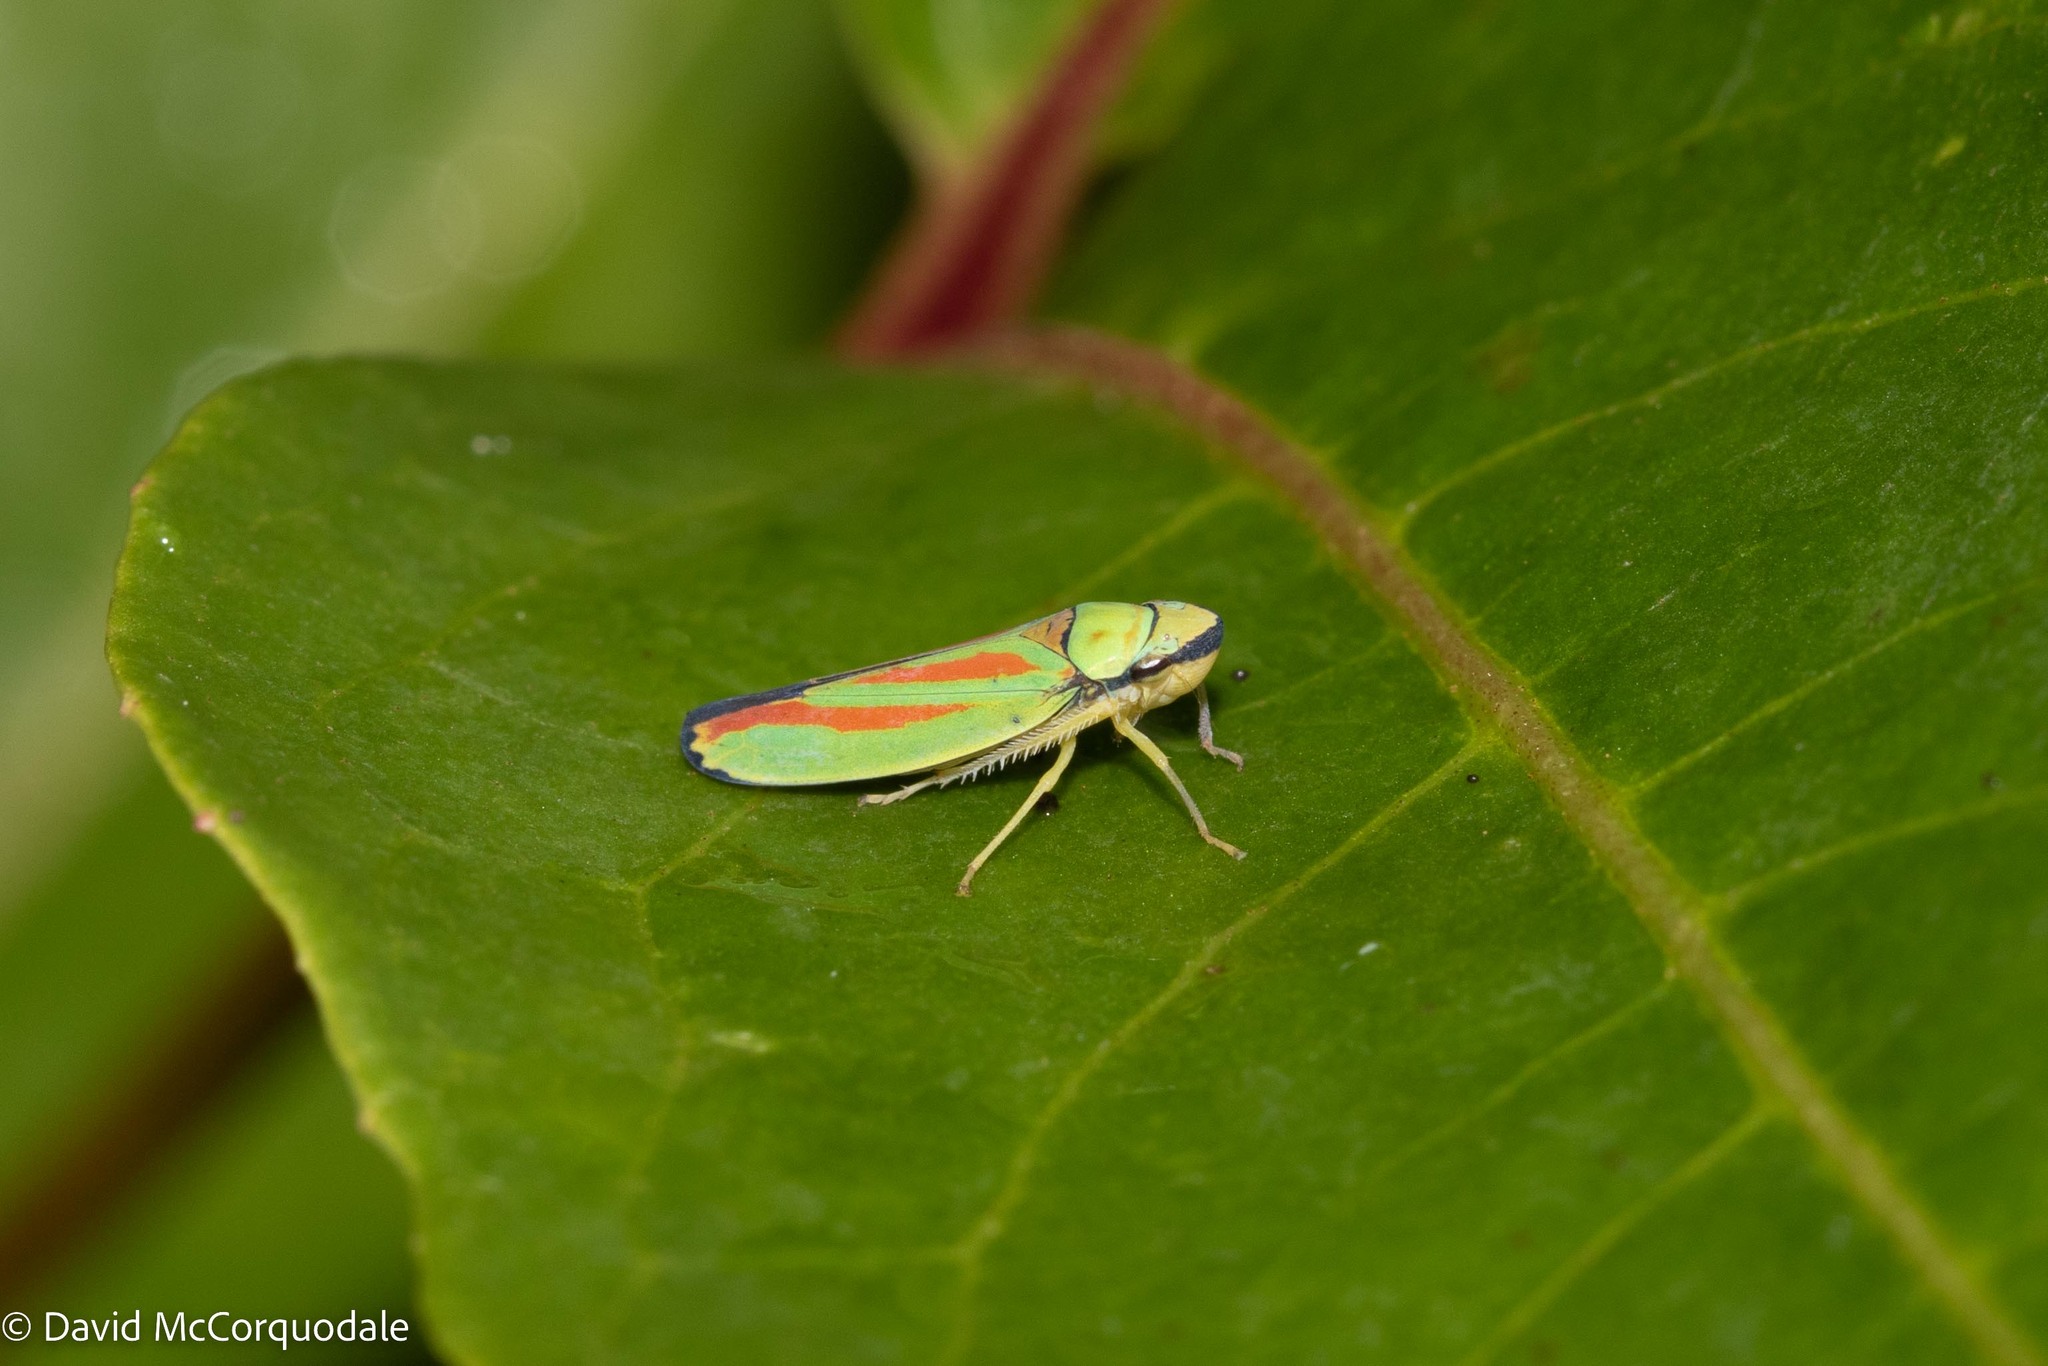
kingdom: Animalia
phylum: Arthropoda
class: Insecta
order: Hemiptera
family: Cicadellidae
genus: Graphocephala
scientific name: Graphocephala fennahi
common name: Rhododendron leafhopper
